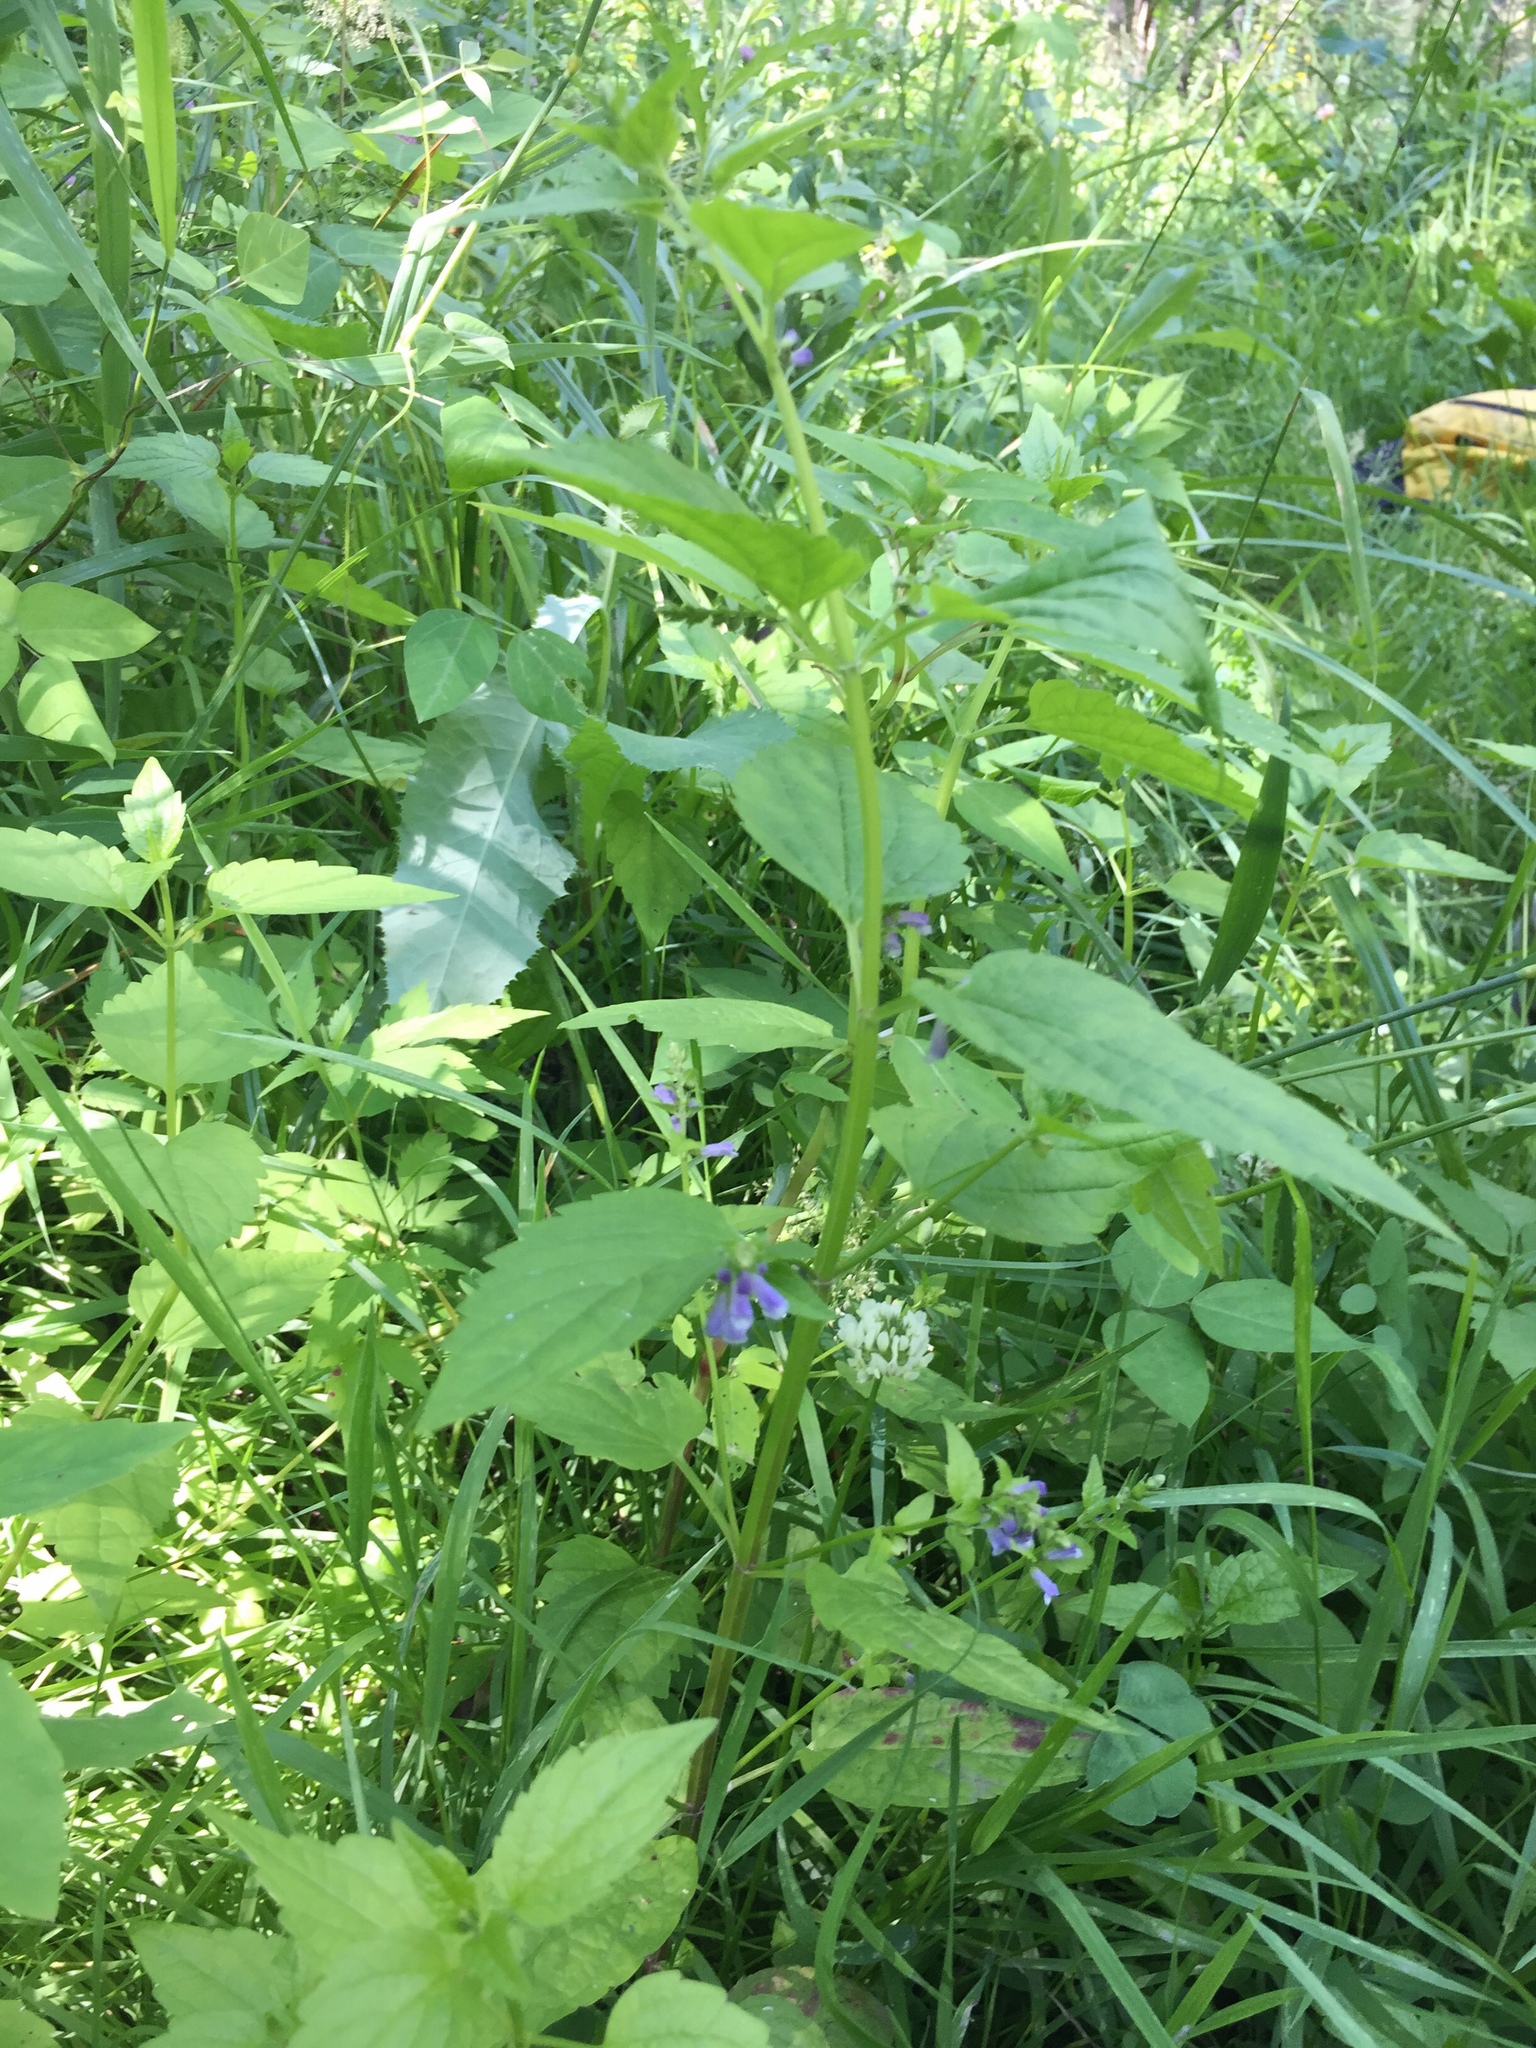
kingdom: Plantae
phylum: Tracheophyta
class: Magnoliopsida
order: Lamiales
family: Lamiaceae
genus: Scutellaria
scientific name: Scutellaria lateriflora
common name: Blue skullcap
